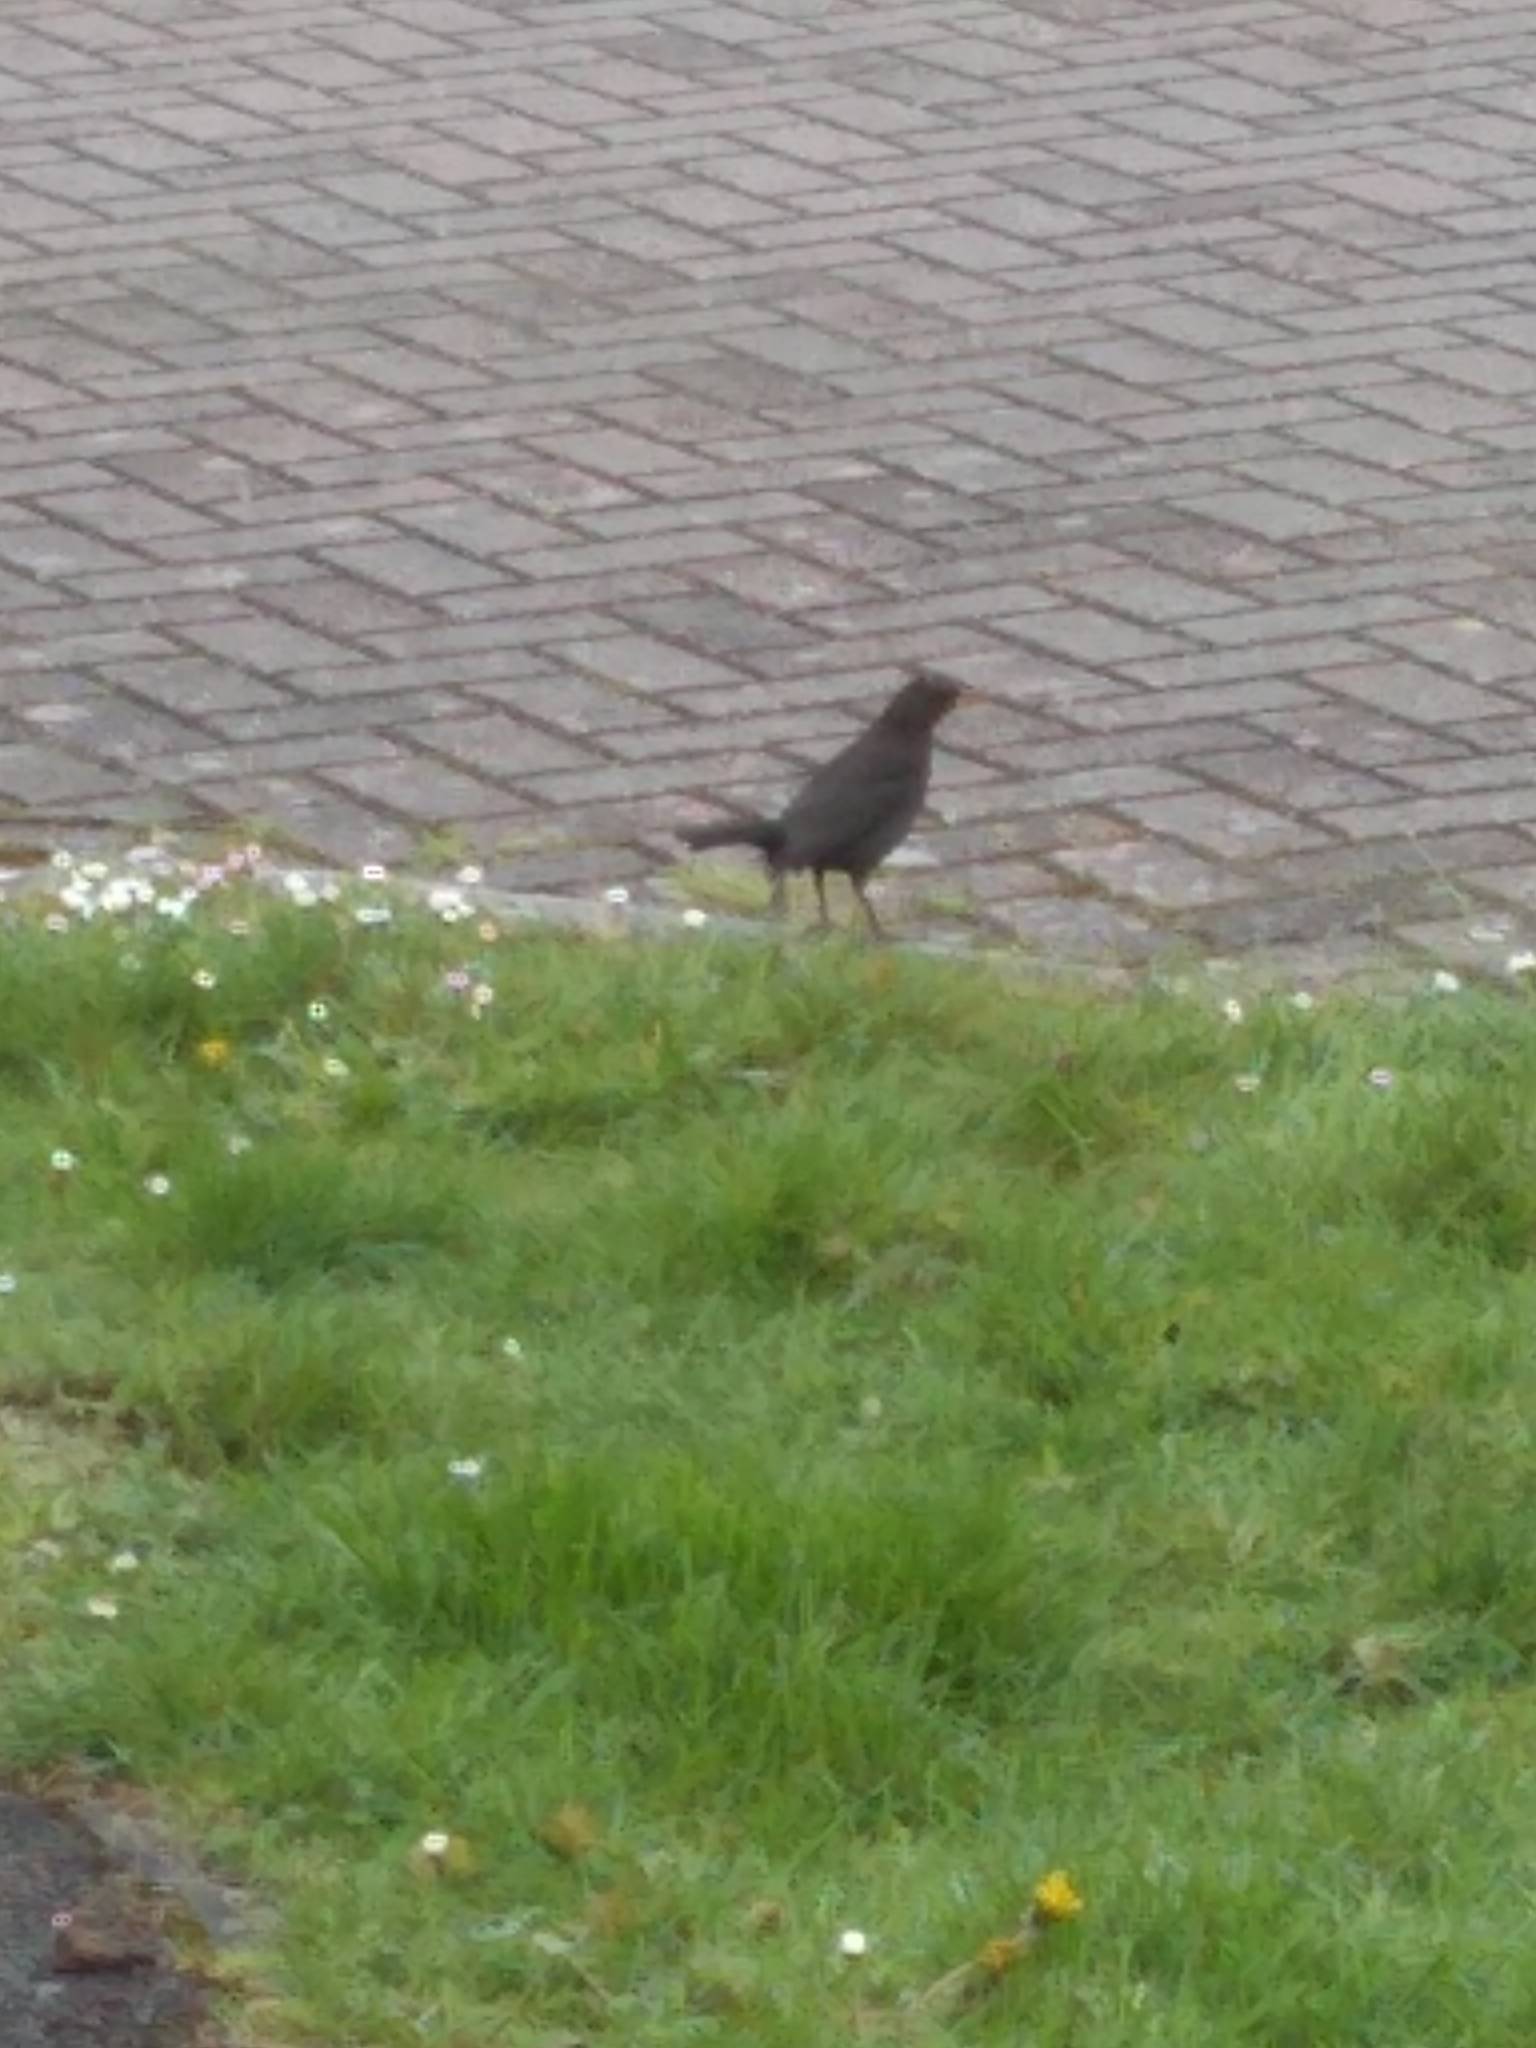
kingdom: Animalia
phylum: Chordata
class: Aves
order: Passeriformes
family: Turdidae
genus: Turdus
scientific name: Turdus merula
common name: Common blackbird
